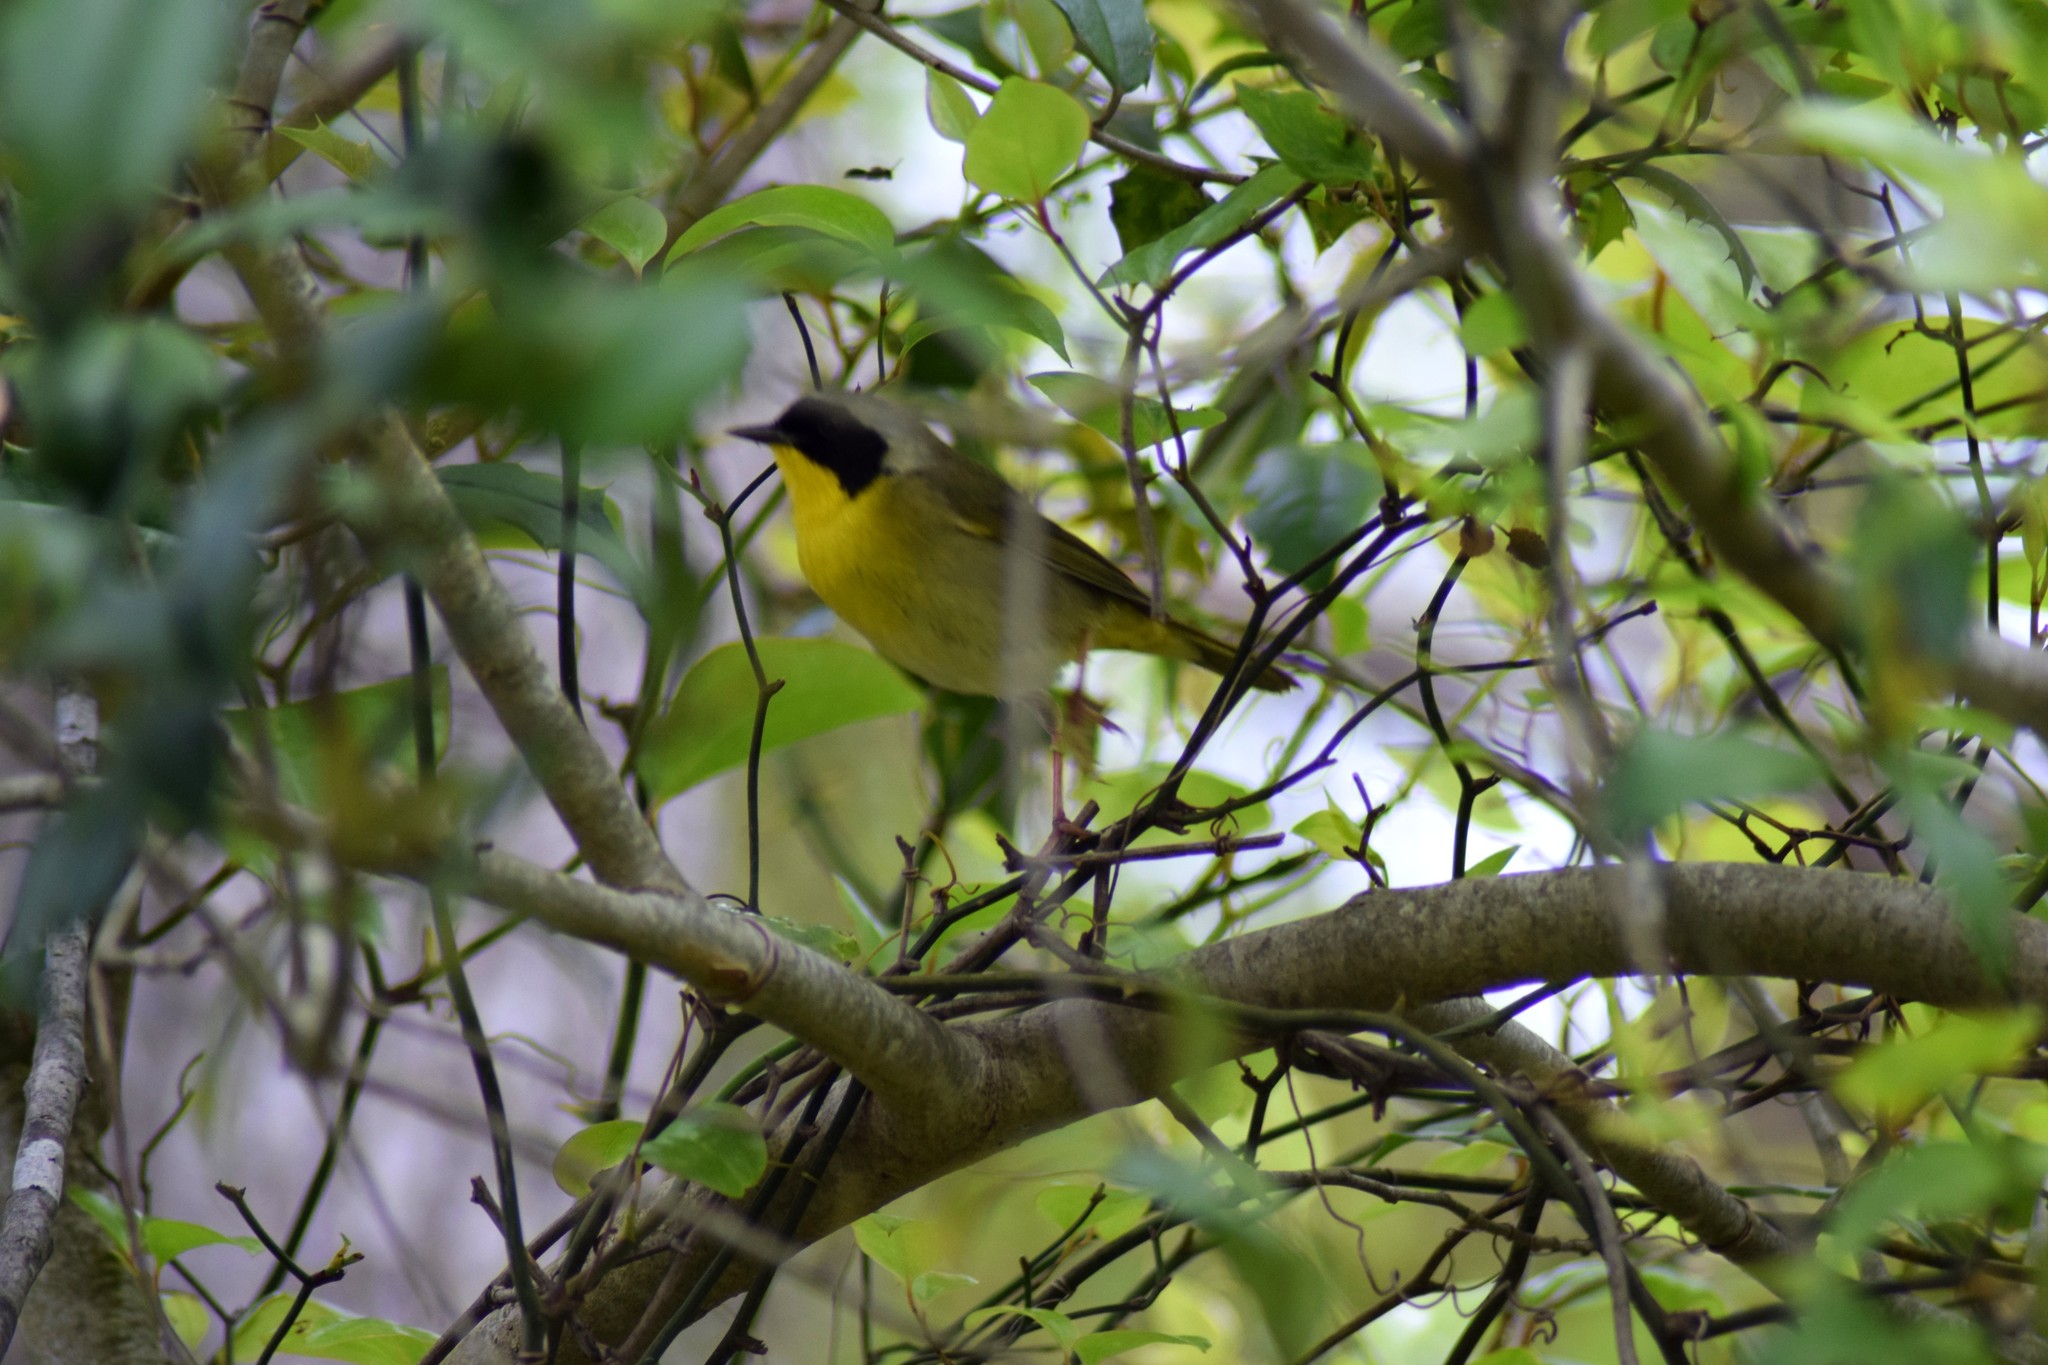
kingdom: Animalia
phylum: Chordata
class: Aves
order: Passeriformes
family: Parulidae
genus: Geothlypis
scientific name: Geothlypis trichas
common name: Common yellowthroat
